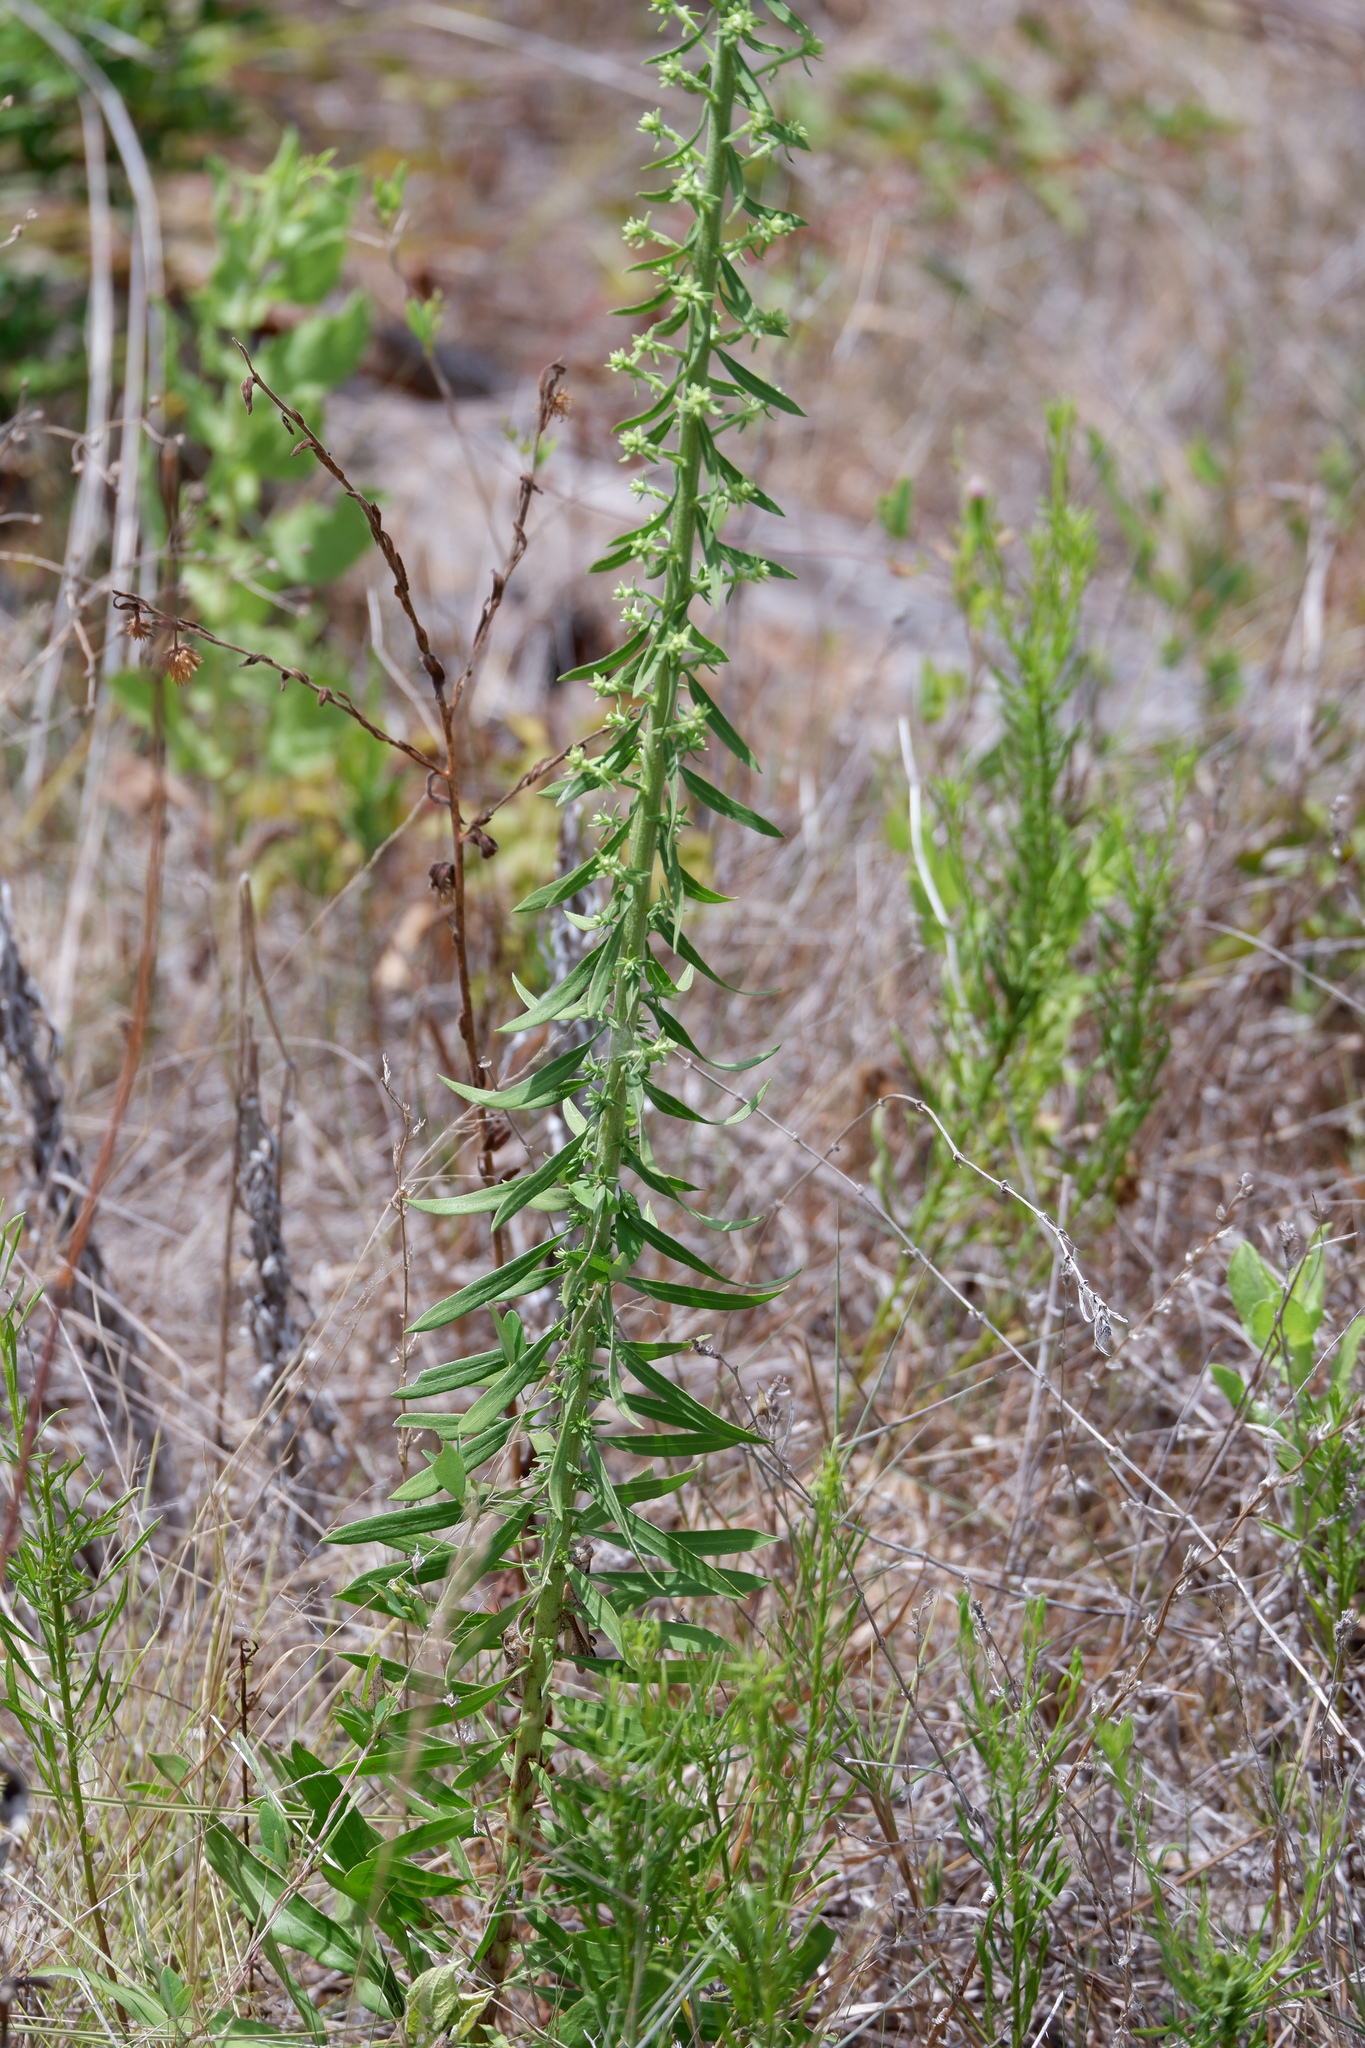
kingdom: Plantae
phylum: Tracheophyta
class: Magnoliopsida
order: Asterales
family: Asteraceae
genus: Liatris
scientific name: Liatris aspera
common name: Lacerate blazing-star
